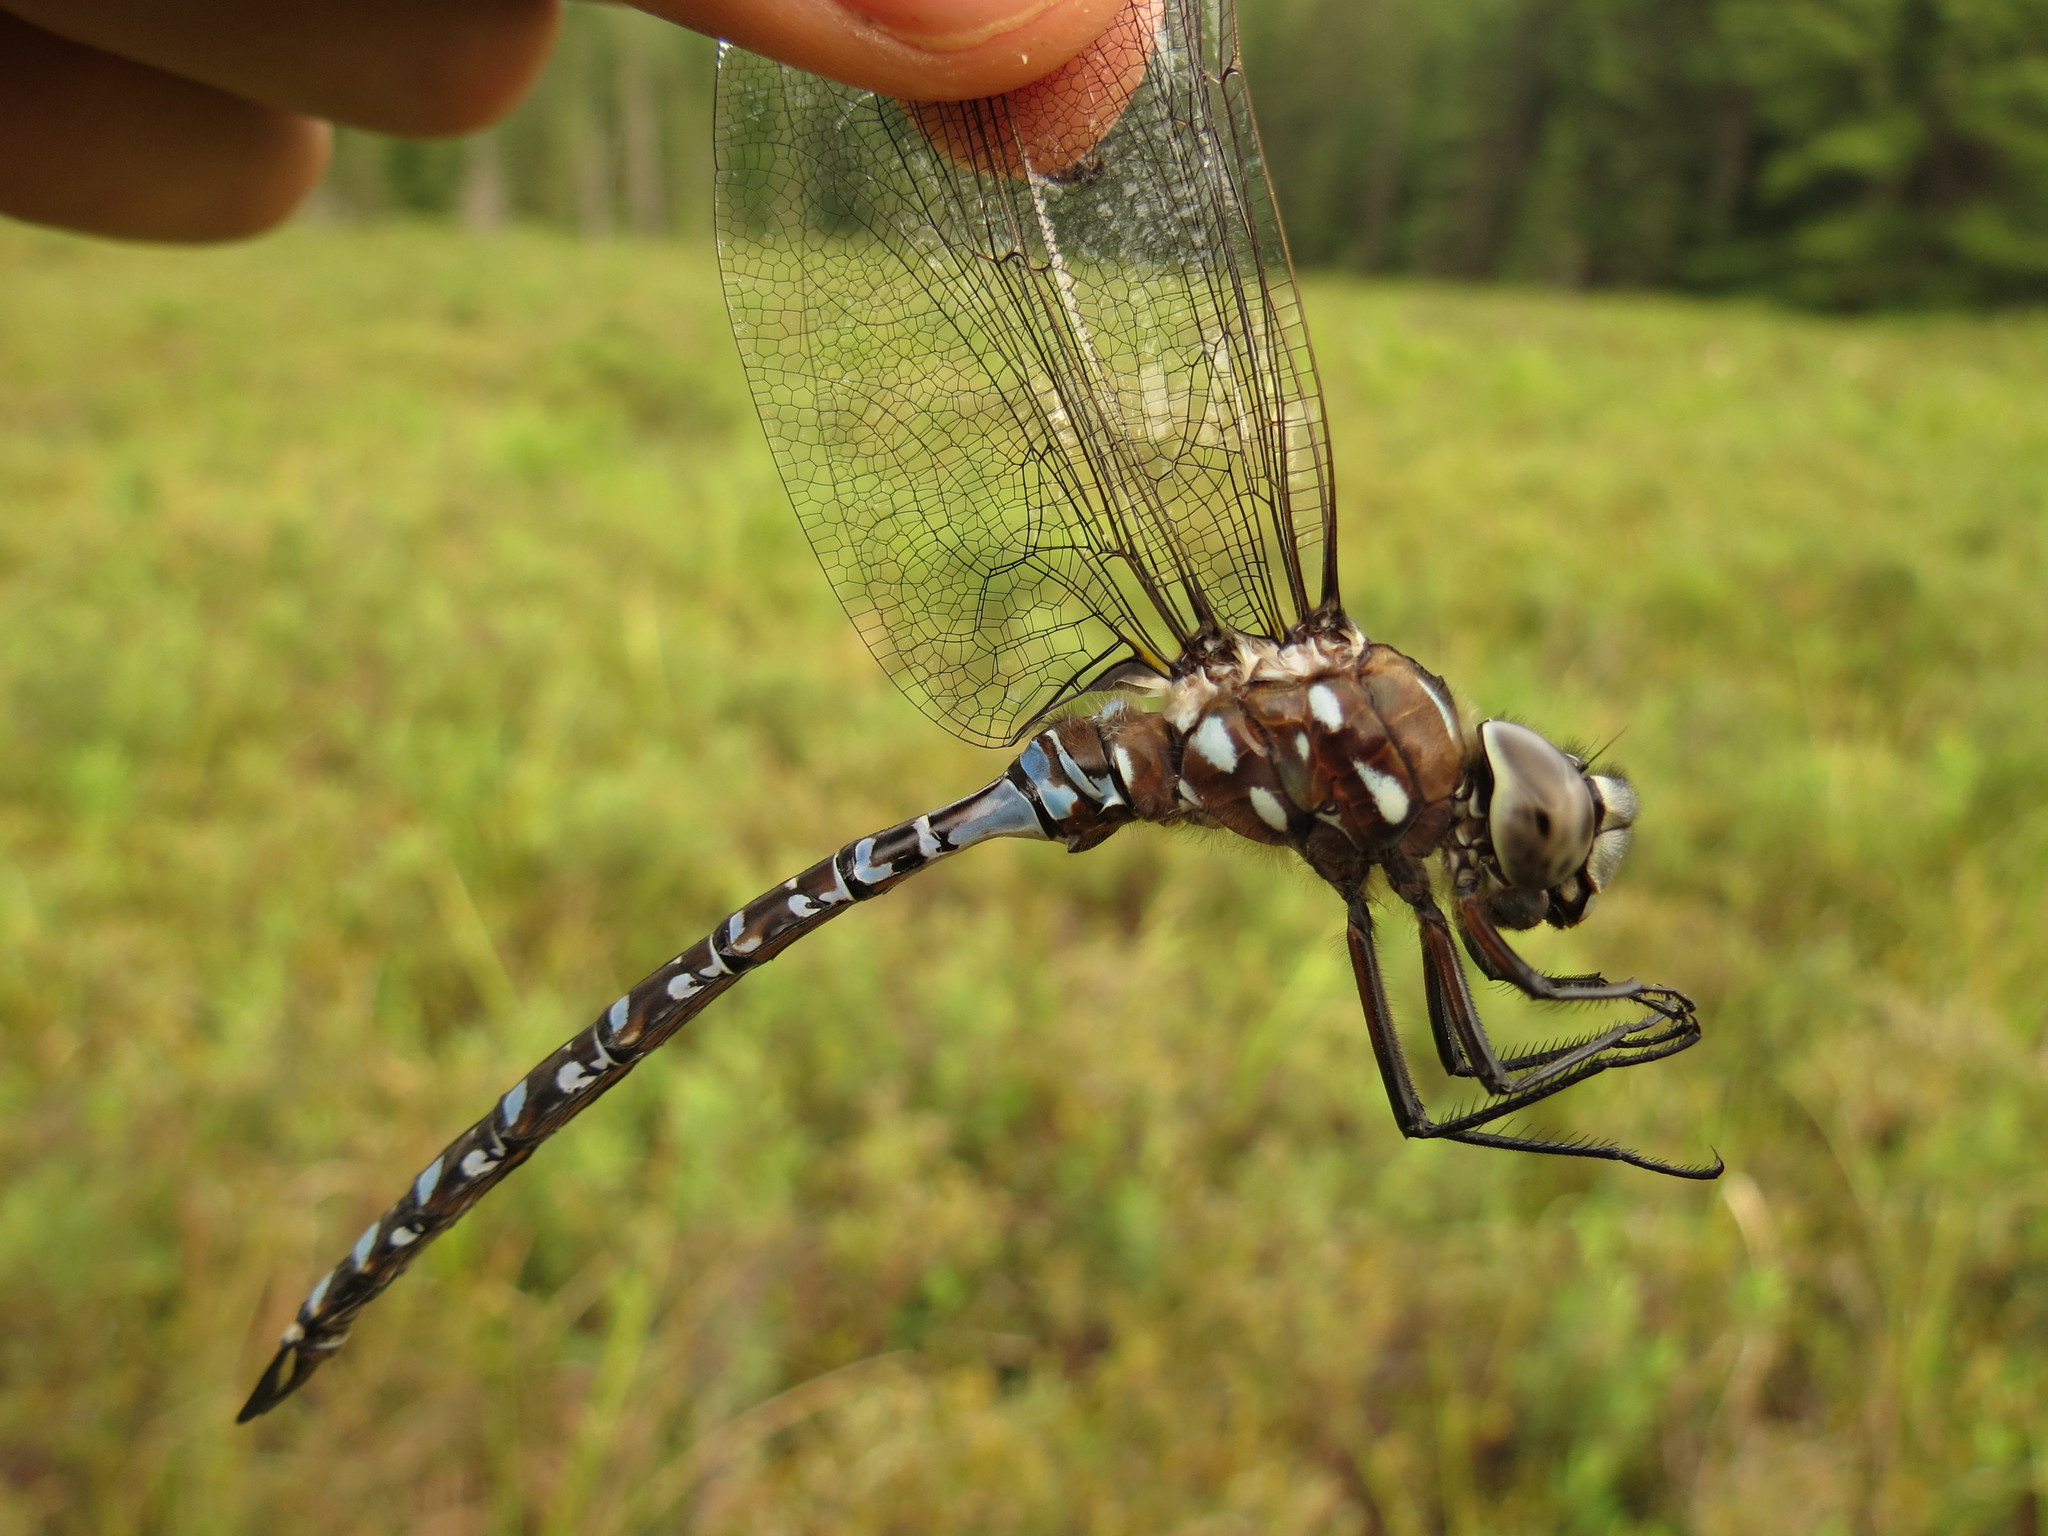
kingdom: Animalia
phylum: Arthropoda
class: Insecta
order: Odonata
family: Aeshnidae
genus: Aeshna
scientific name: Aeshna interrupta
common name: Variable darner
